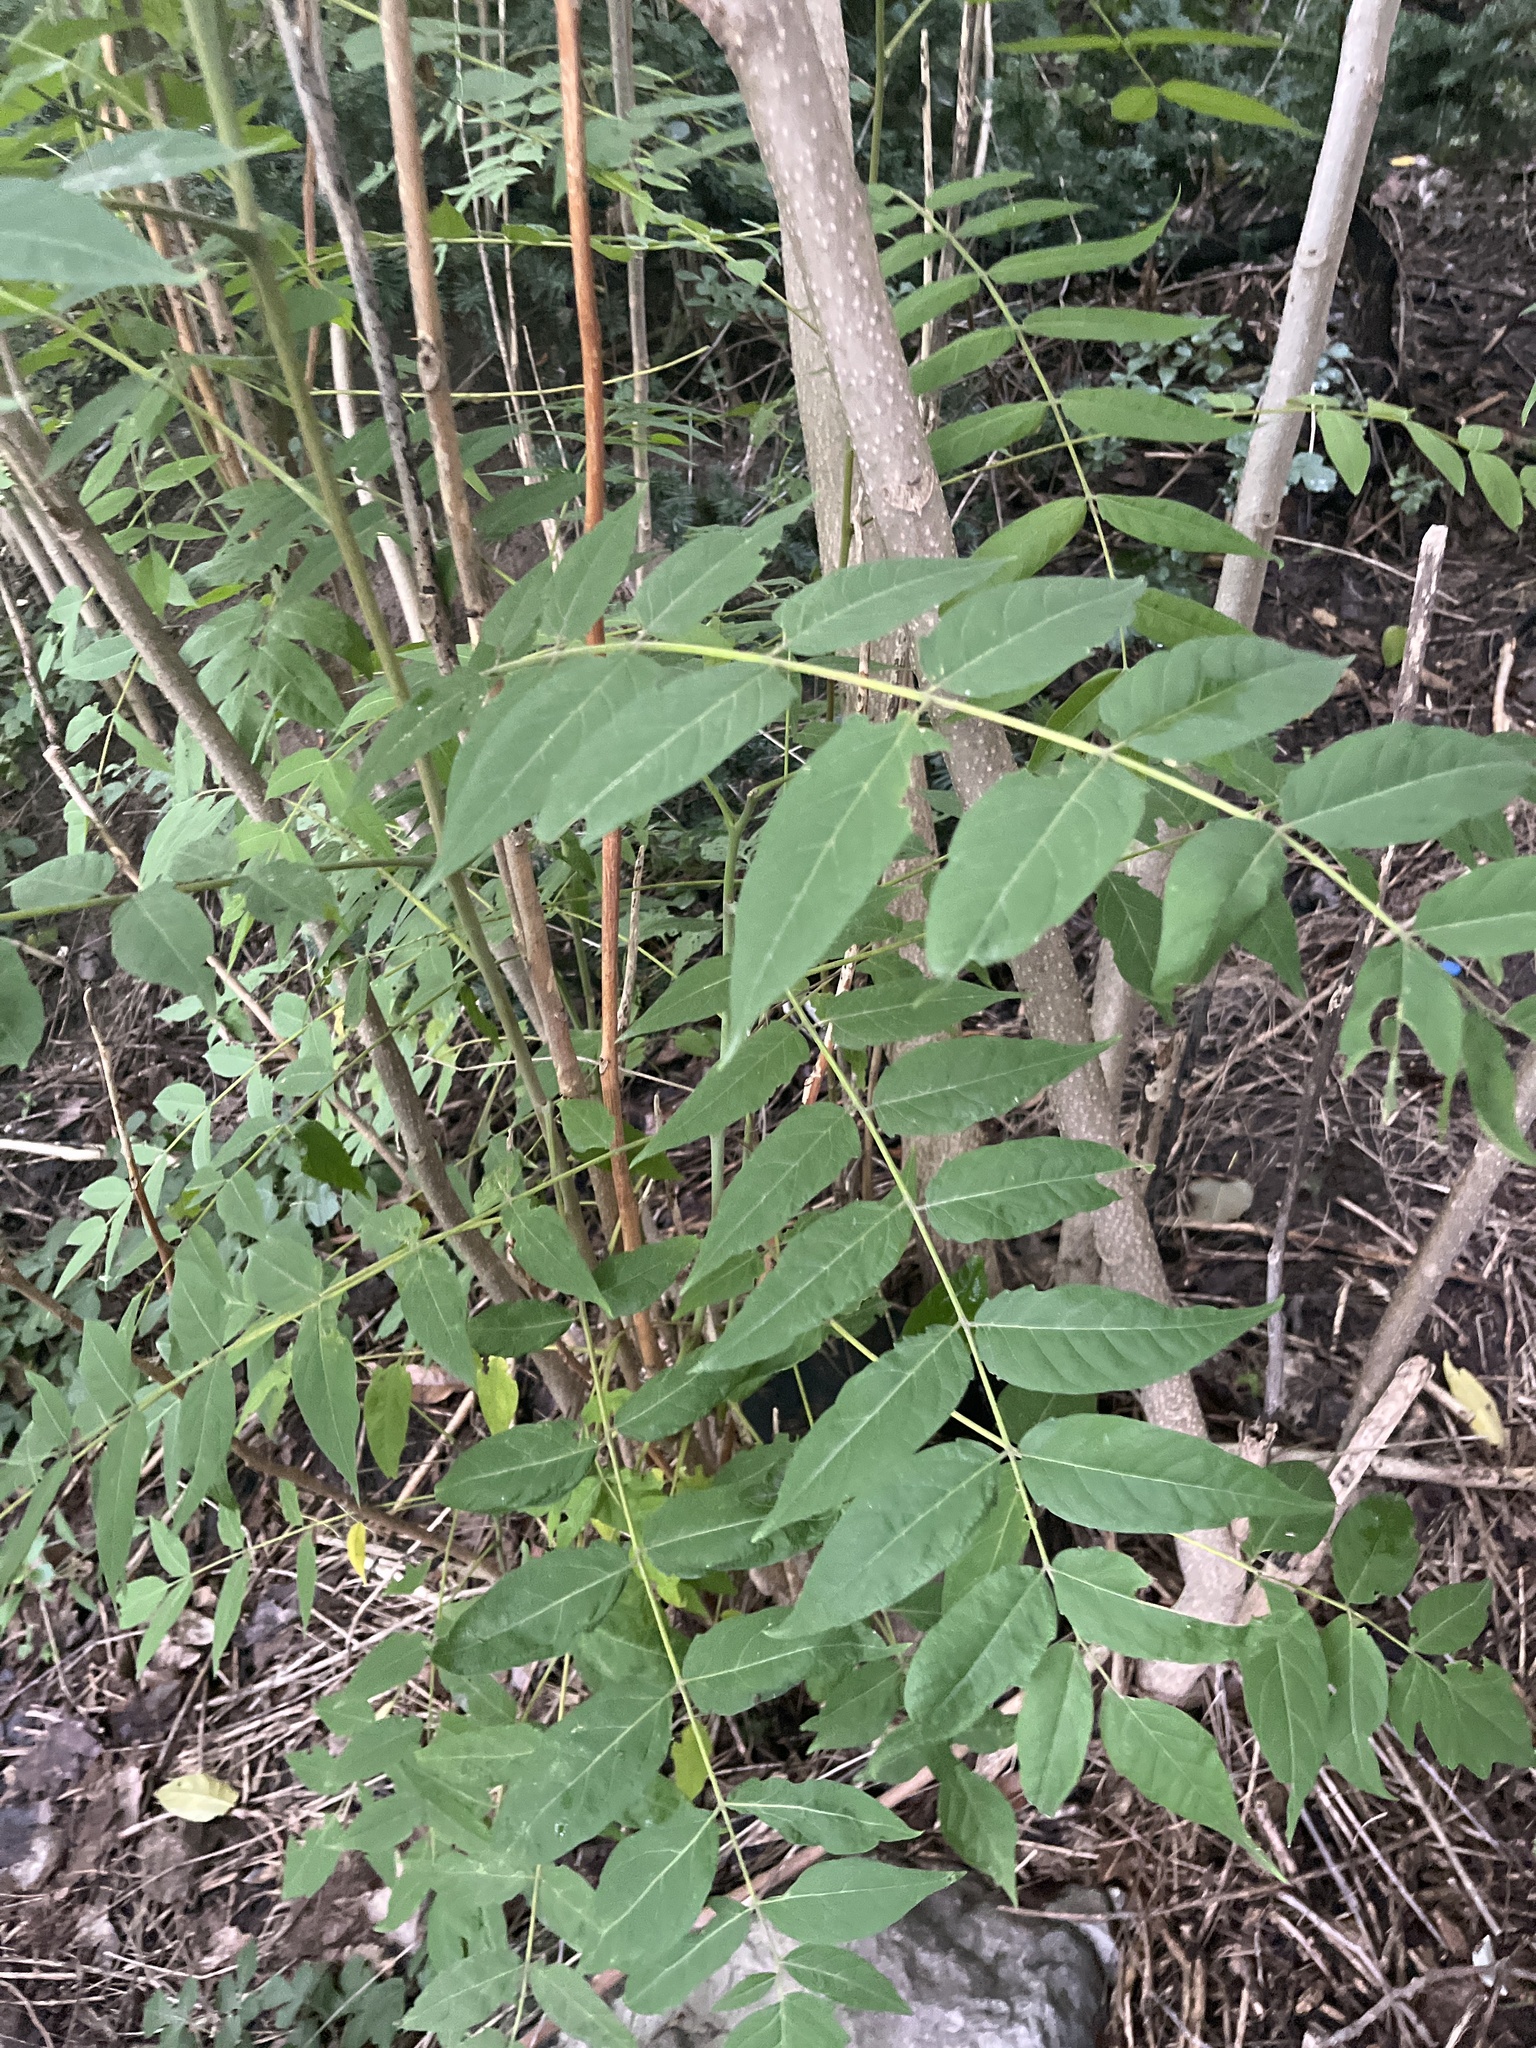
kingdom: Plantae
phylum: Tracheophyta
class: Magnoliopsida
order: Sapindales
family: Simaroubaceae
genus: Ailanthus
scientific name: Ailanthus altissima
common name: Tree-of-heaven
